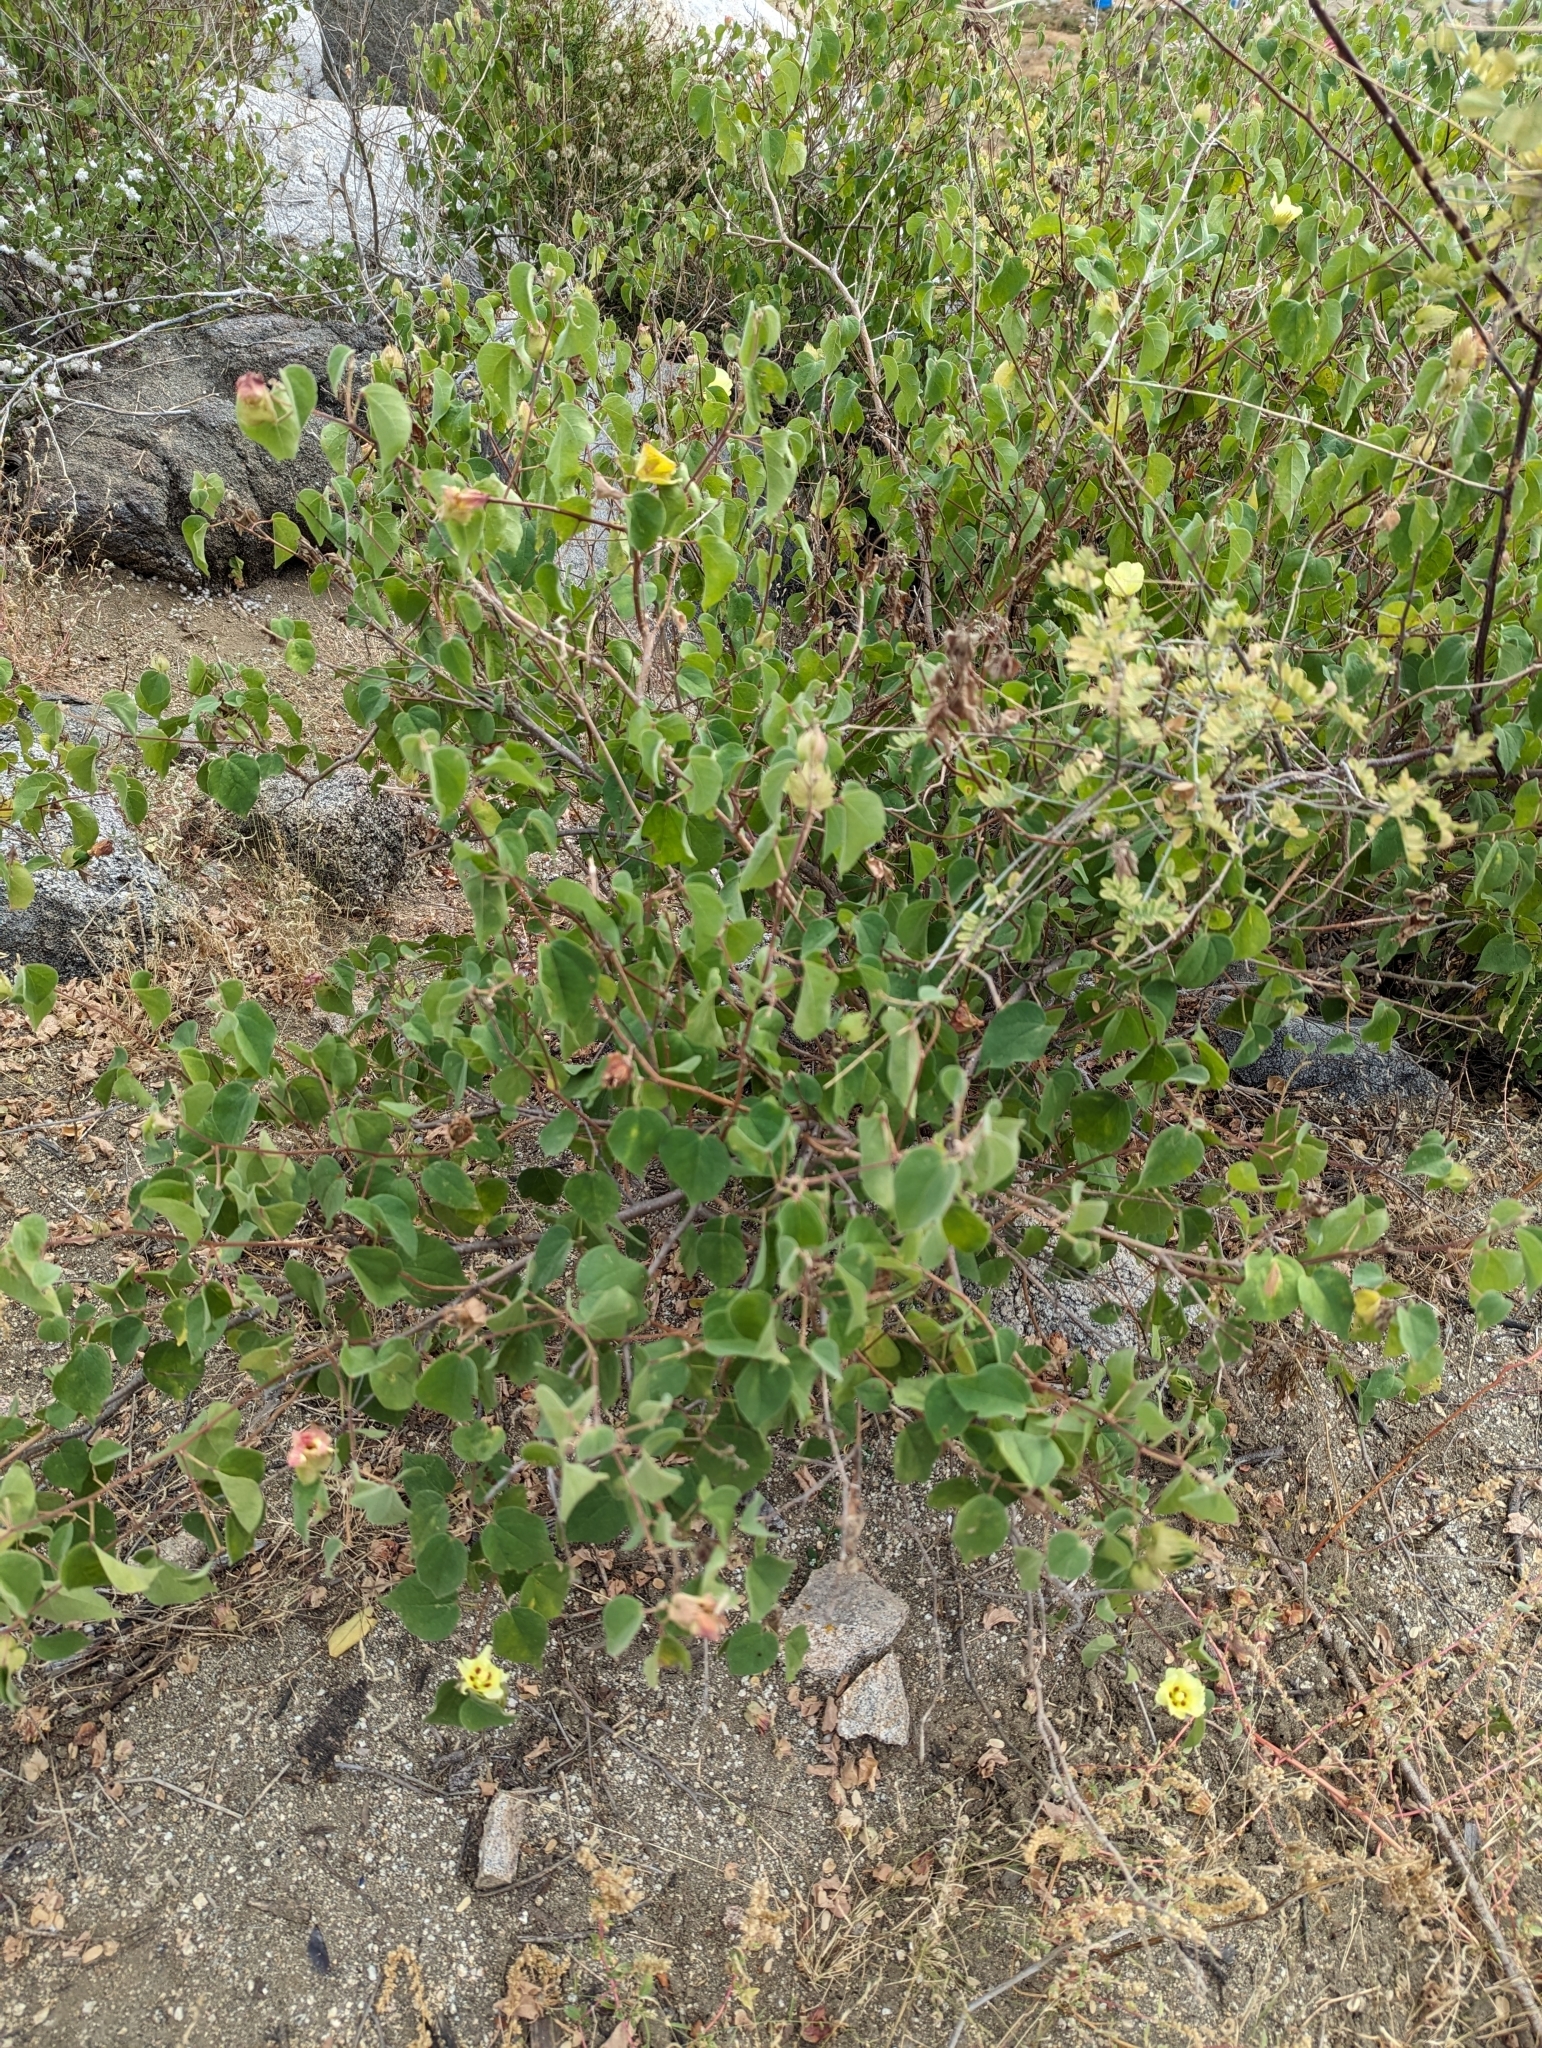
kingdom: Plantae
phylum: Tracheophyta
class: Magnoliopsida
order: Malvales
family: Malvaceae
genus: Gossypium
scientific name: Gossypium klotzschianum
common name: Galapagos cotton
